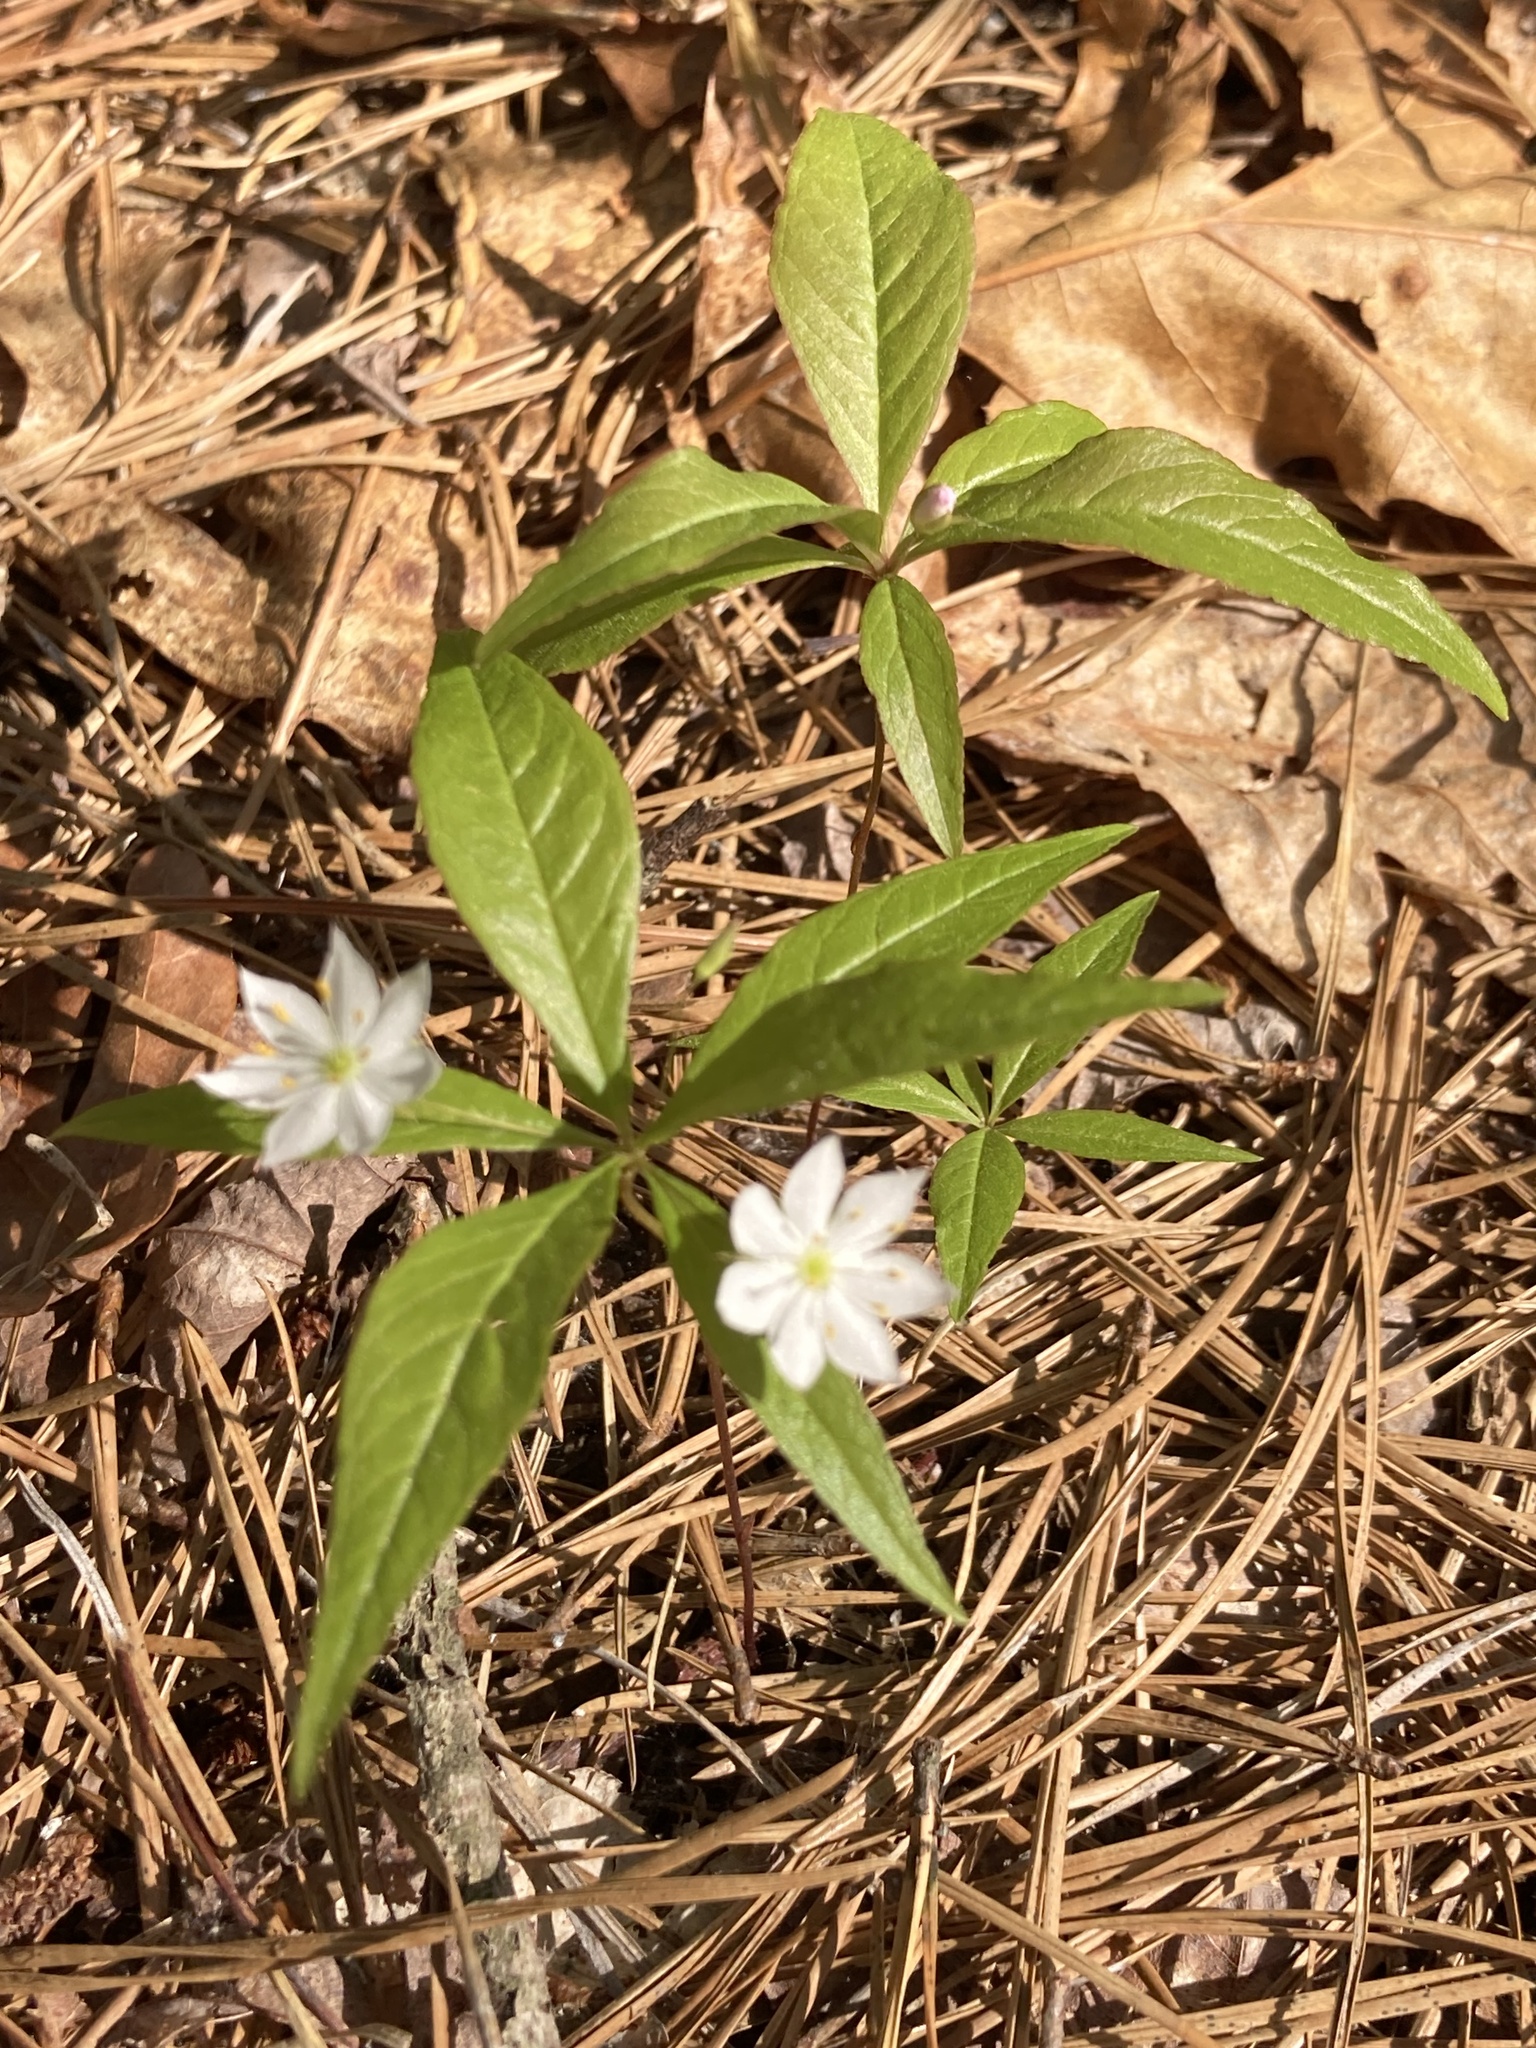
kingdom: Plantae
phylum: Tracheophyta
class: Magnoliopsida
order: Ericales
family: Primulaceae
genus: Lysimachia
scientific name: Lysimachia borealis
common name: American starflower
